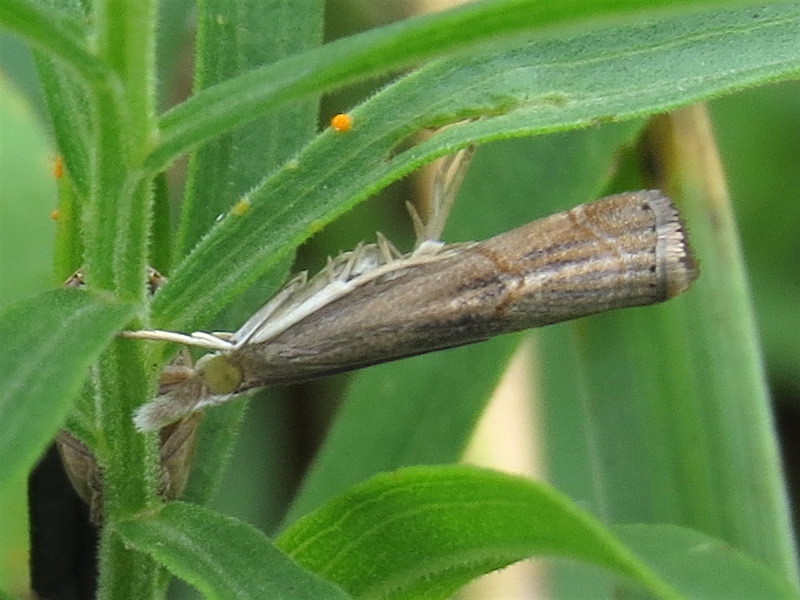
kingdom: Animalia
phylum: Arthropoda
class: Insecta
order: Lepidoptera
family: Crambidae
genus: Parapediasia
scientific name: Parapediasia teterellus
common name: Bluegrass webworm moth
